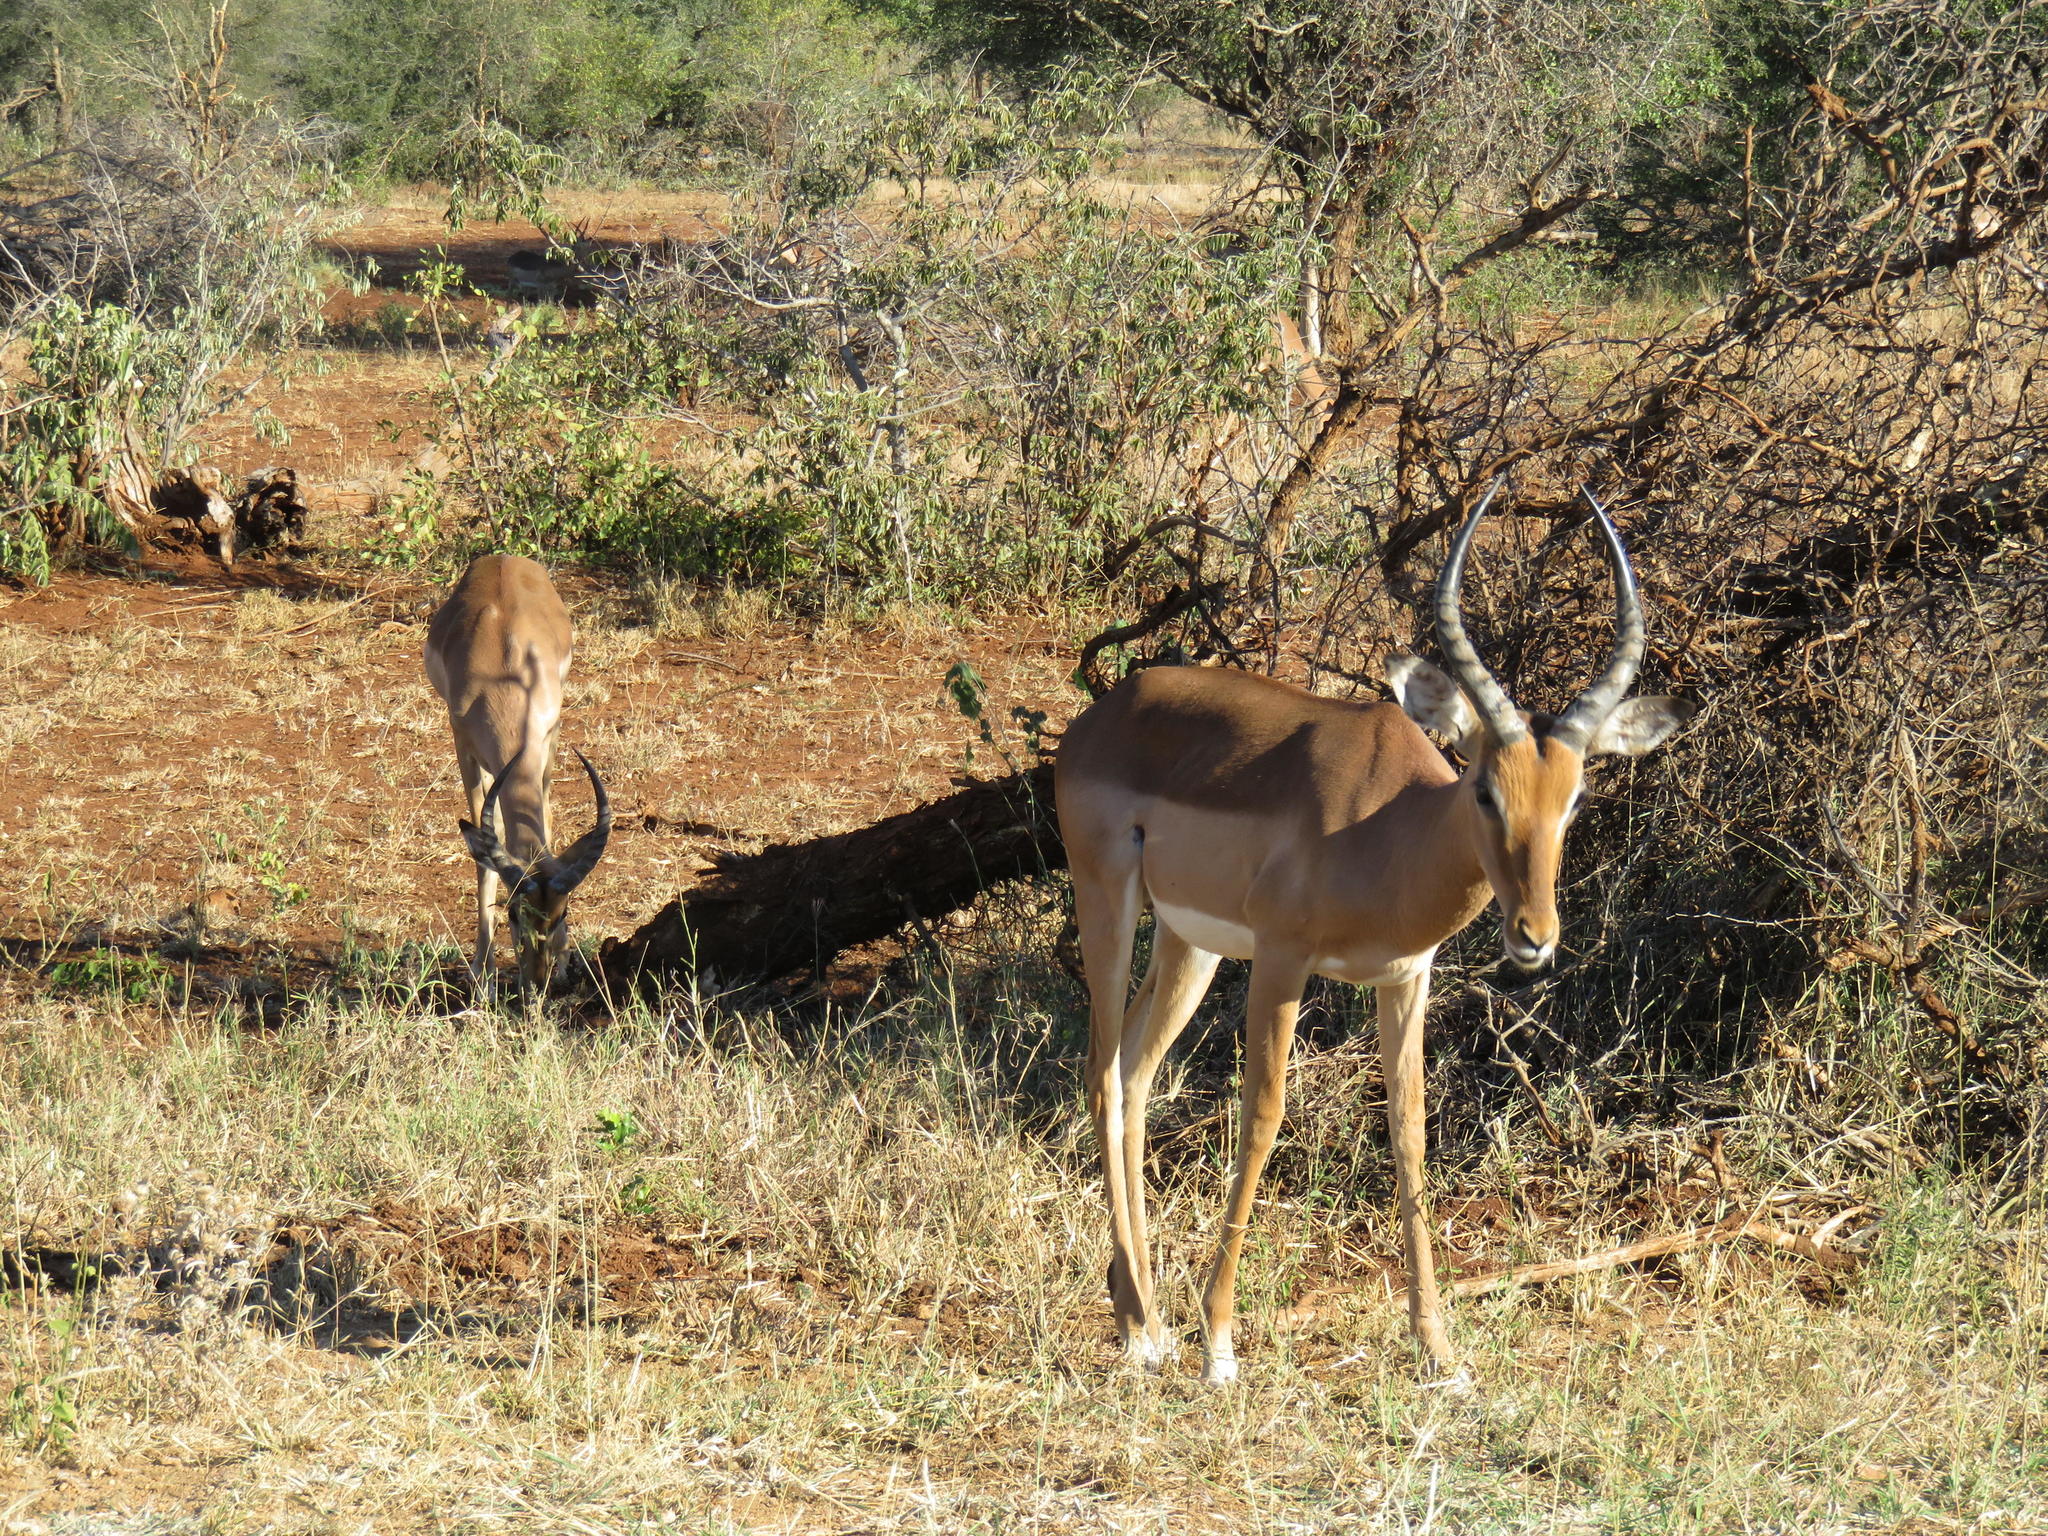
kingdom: Animalia
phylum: Chordata
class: Mammalia
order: Artiodactyla
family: Bovidae
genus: Aepyceros
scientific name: Aepyceros melampus
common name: Impala
